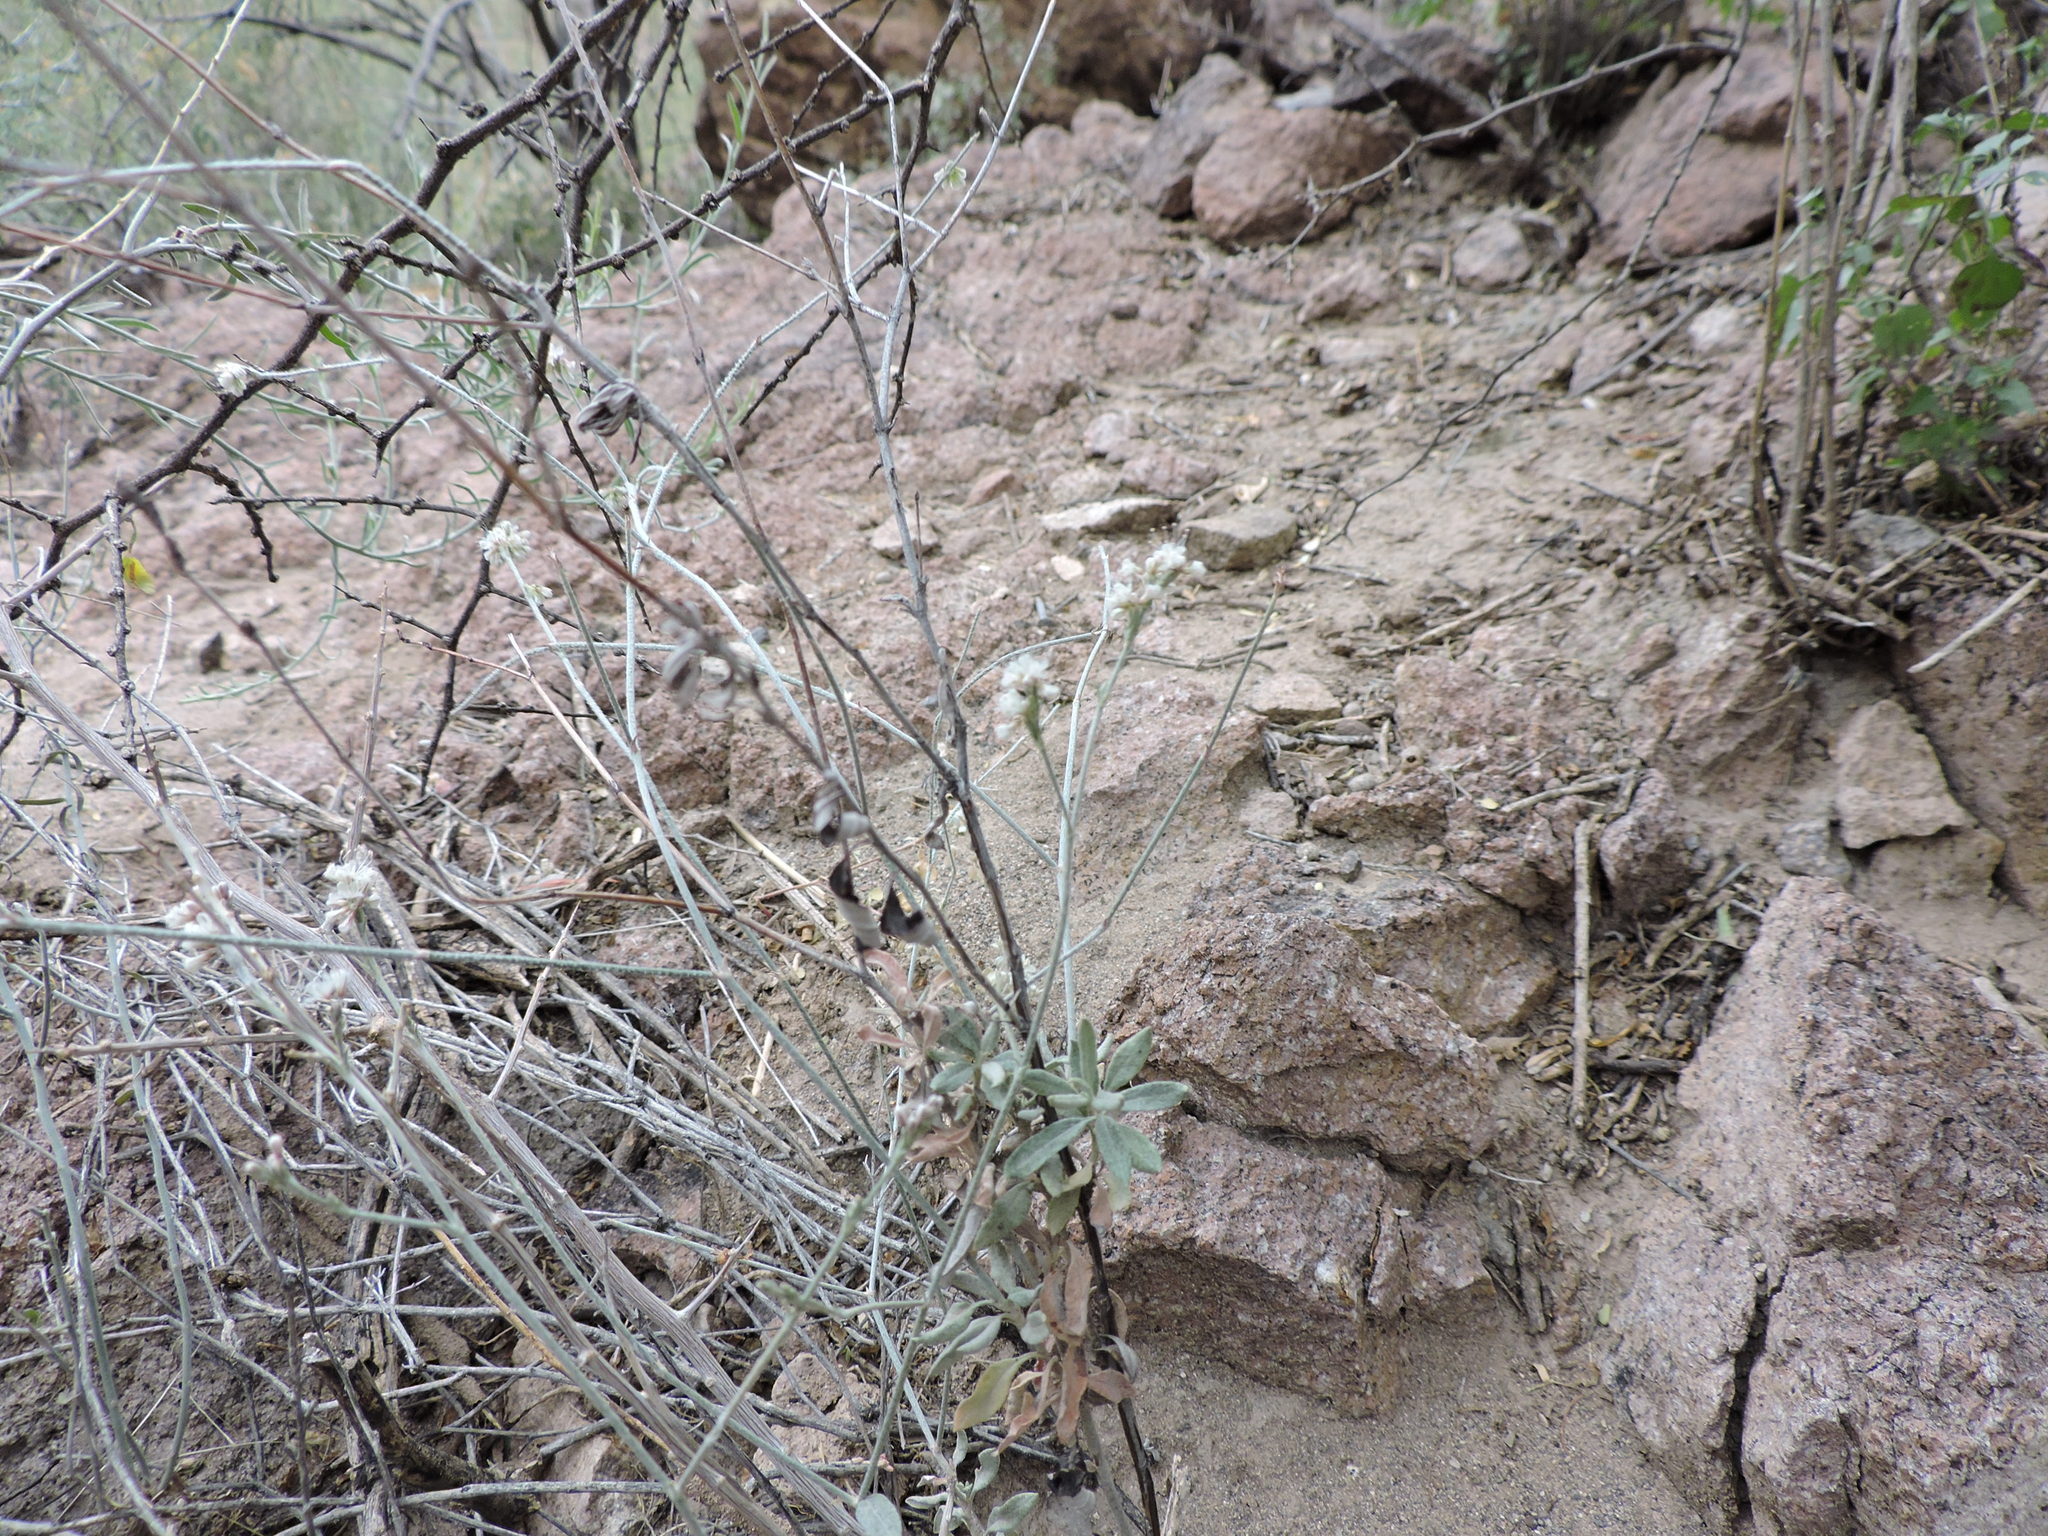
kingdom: Plantae
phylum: Tracheophyta
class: Magnoliopsida
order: Caryophyllales
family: Polygonaceae
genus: Eriogonum
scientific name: Eriogonum wrightii
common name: Bastard-sage
